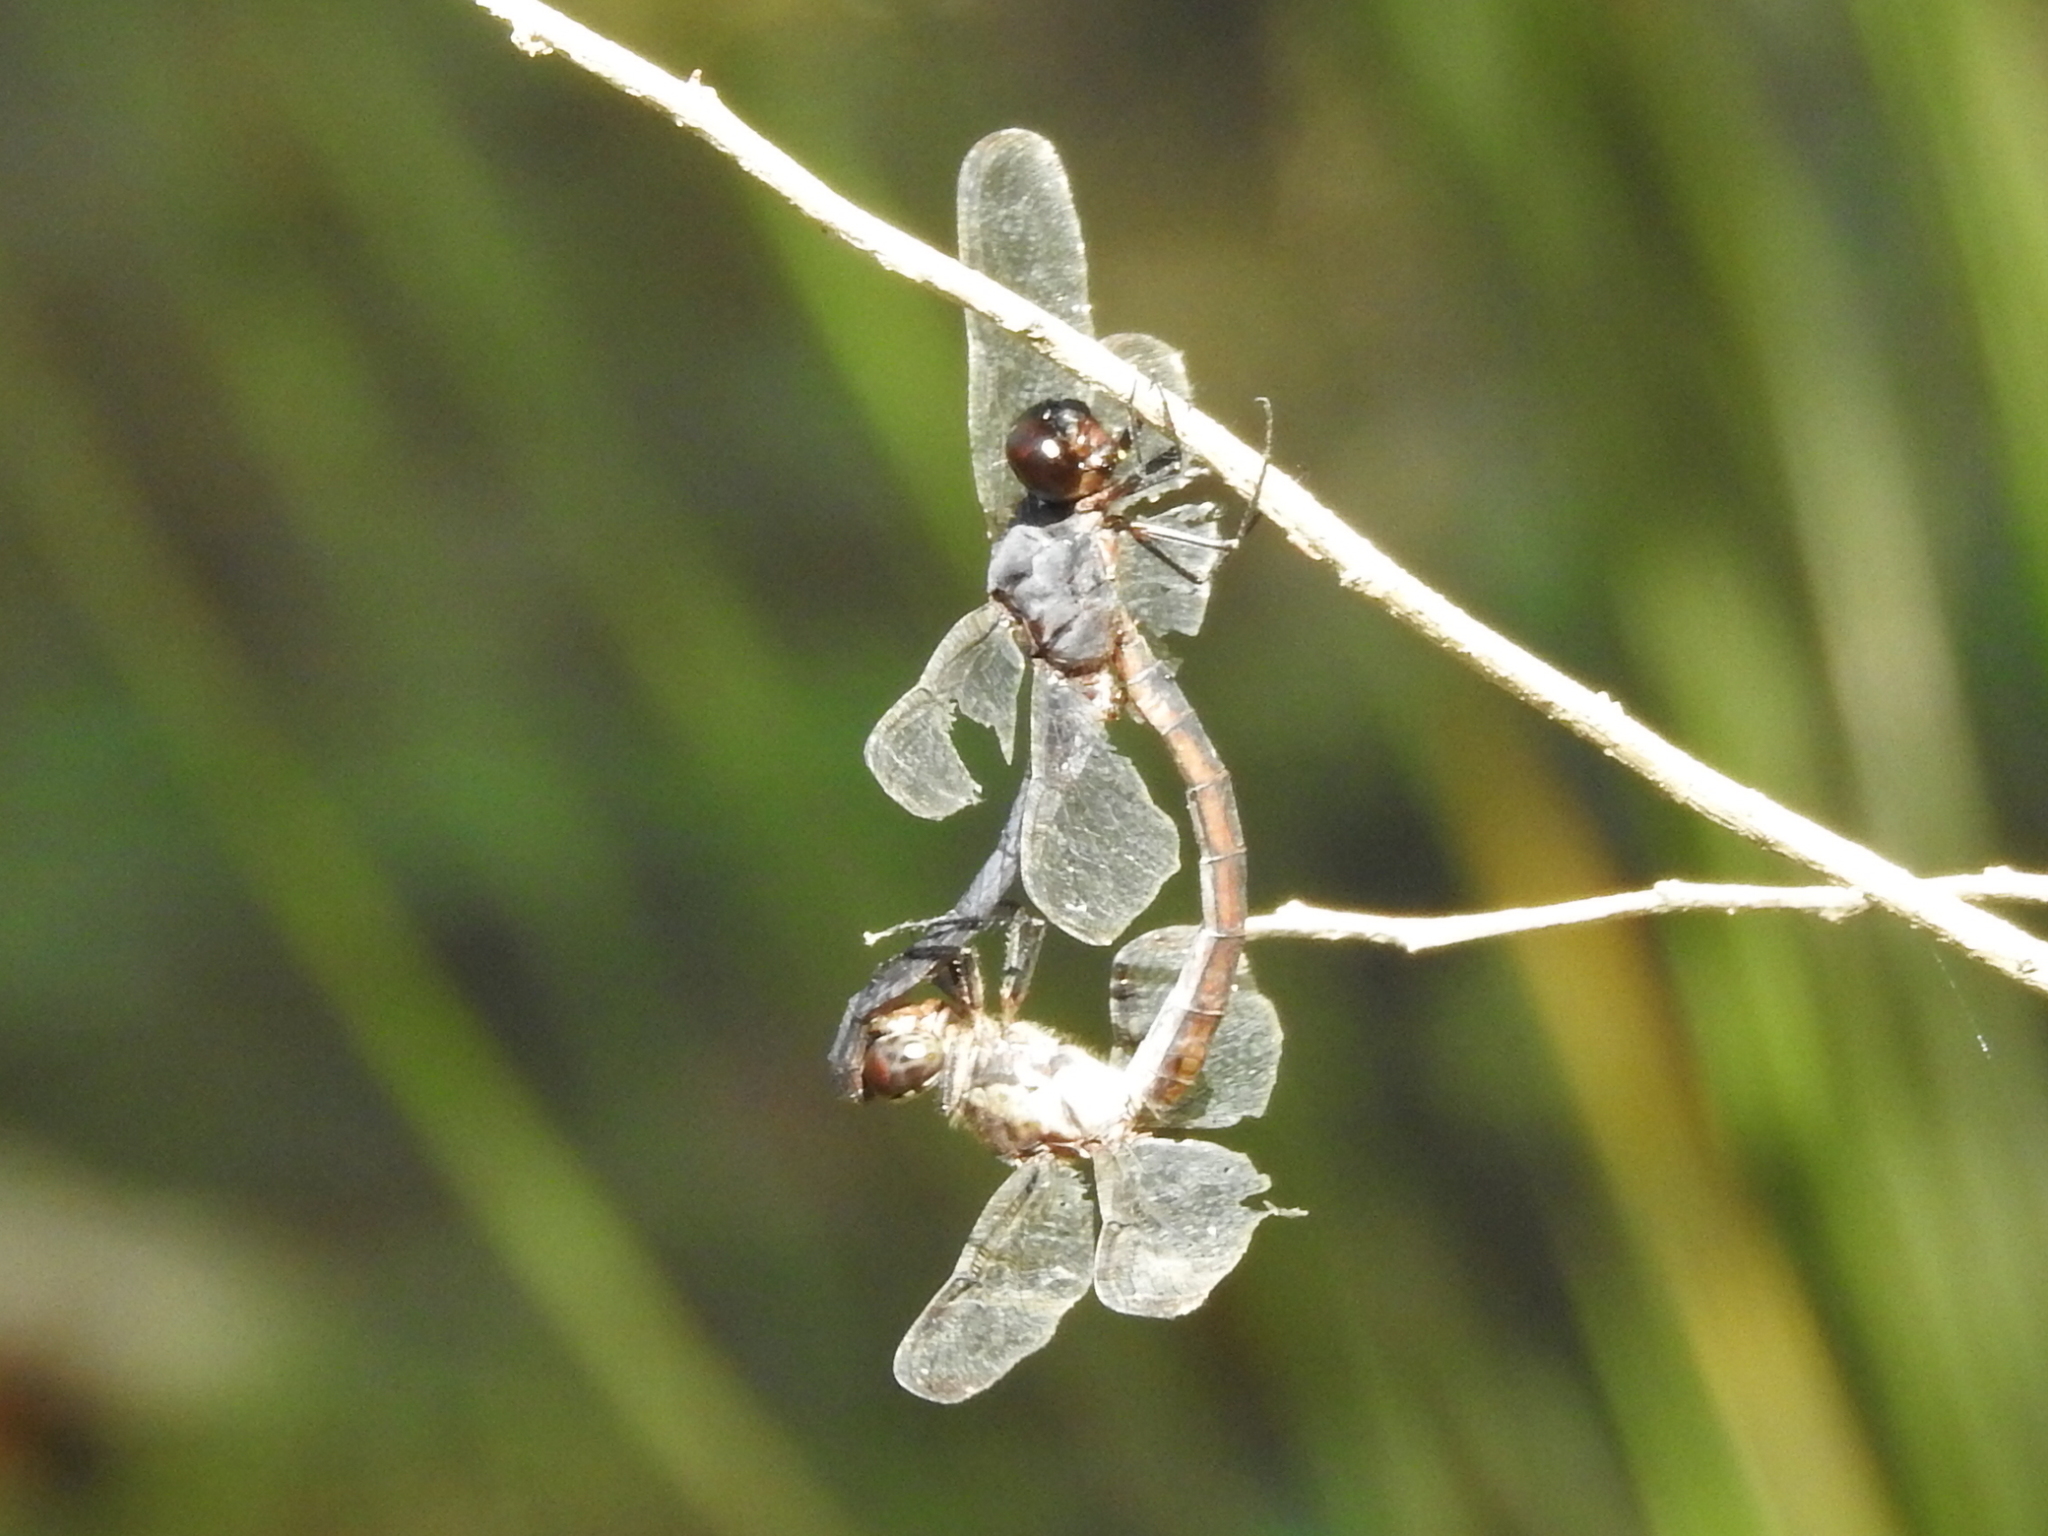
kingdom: Animalia
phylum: Arthropoda
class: Insecta
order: Odonata
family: Libellulidae
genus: Libellula
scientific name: Libellula incesta
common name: Slaty skimmer
